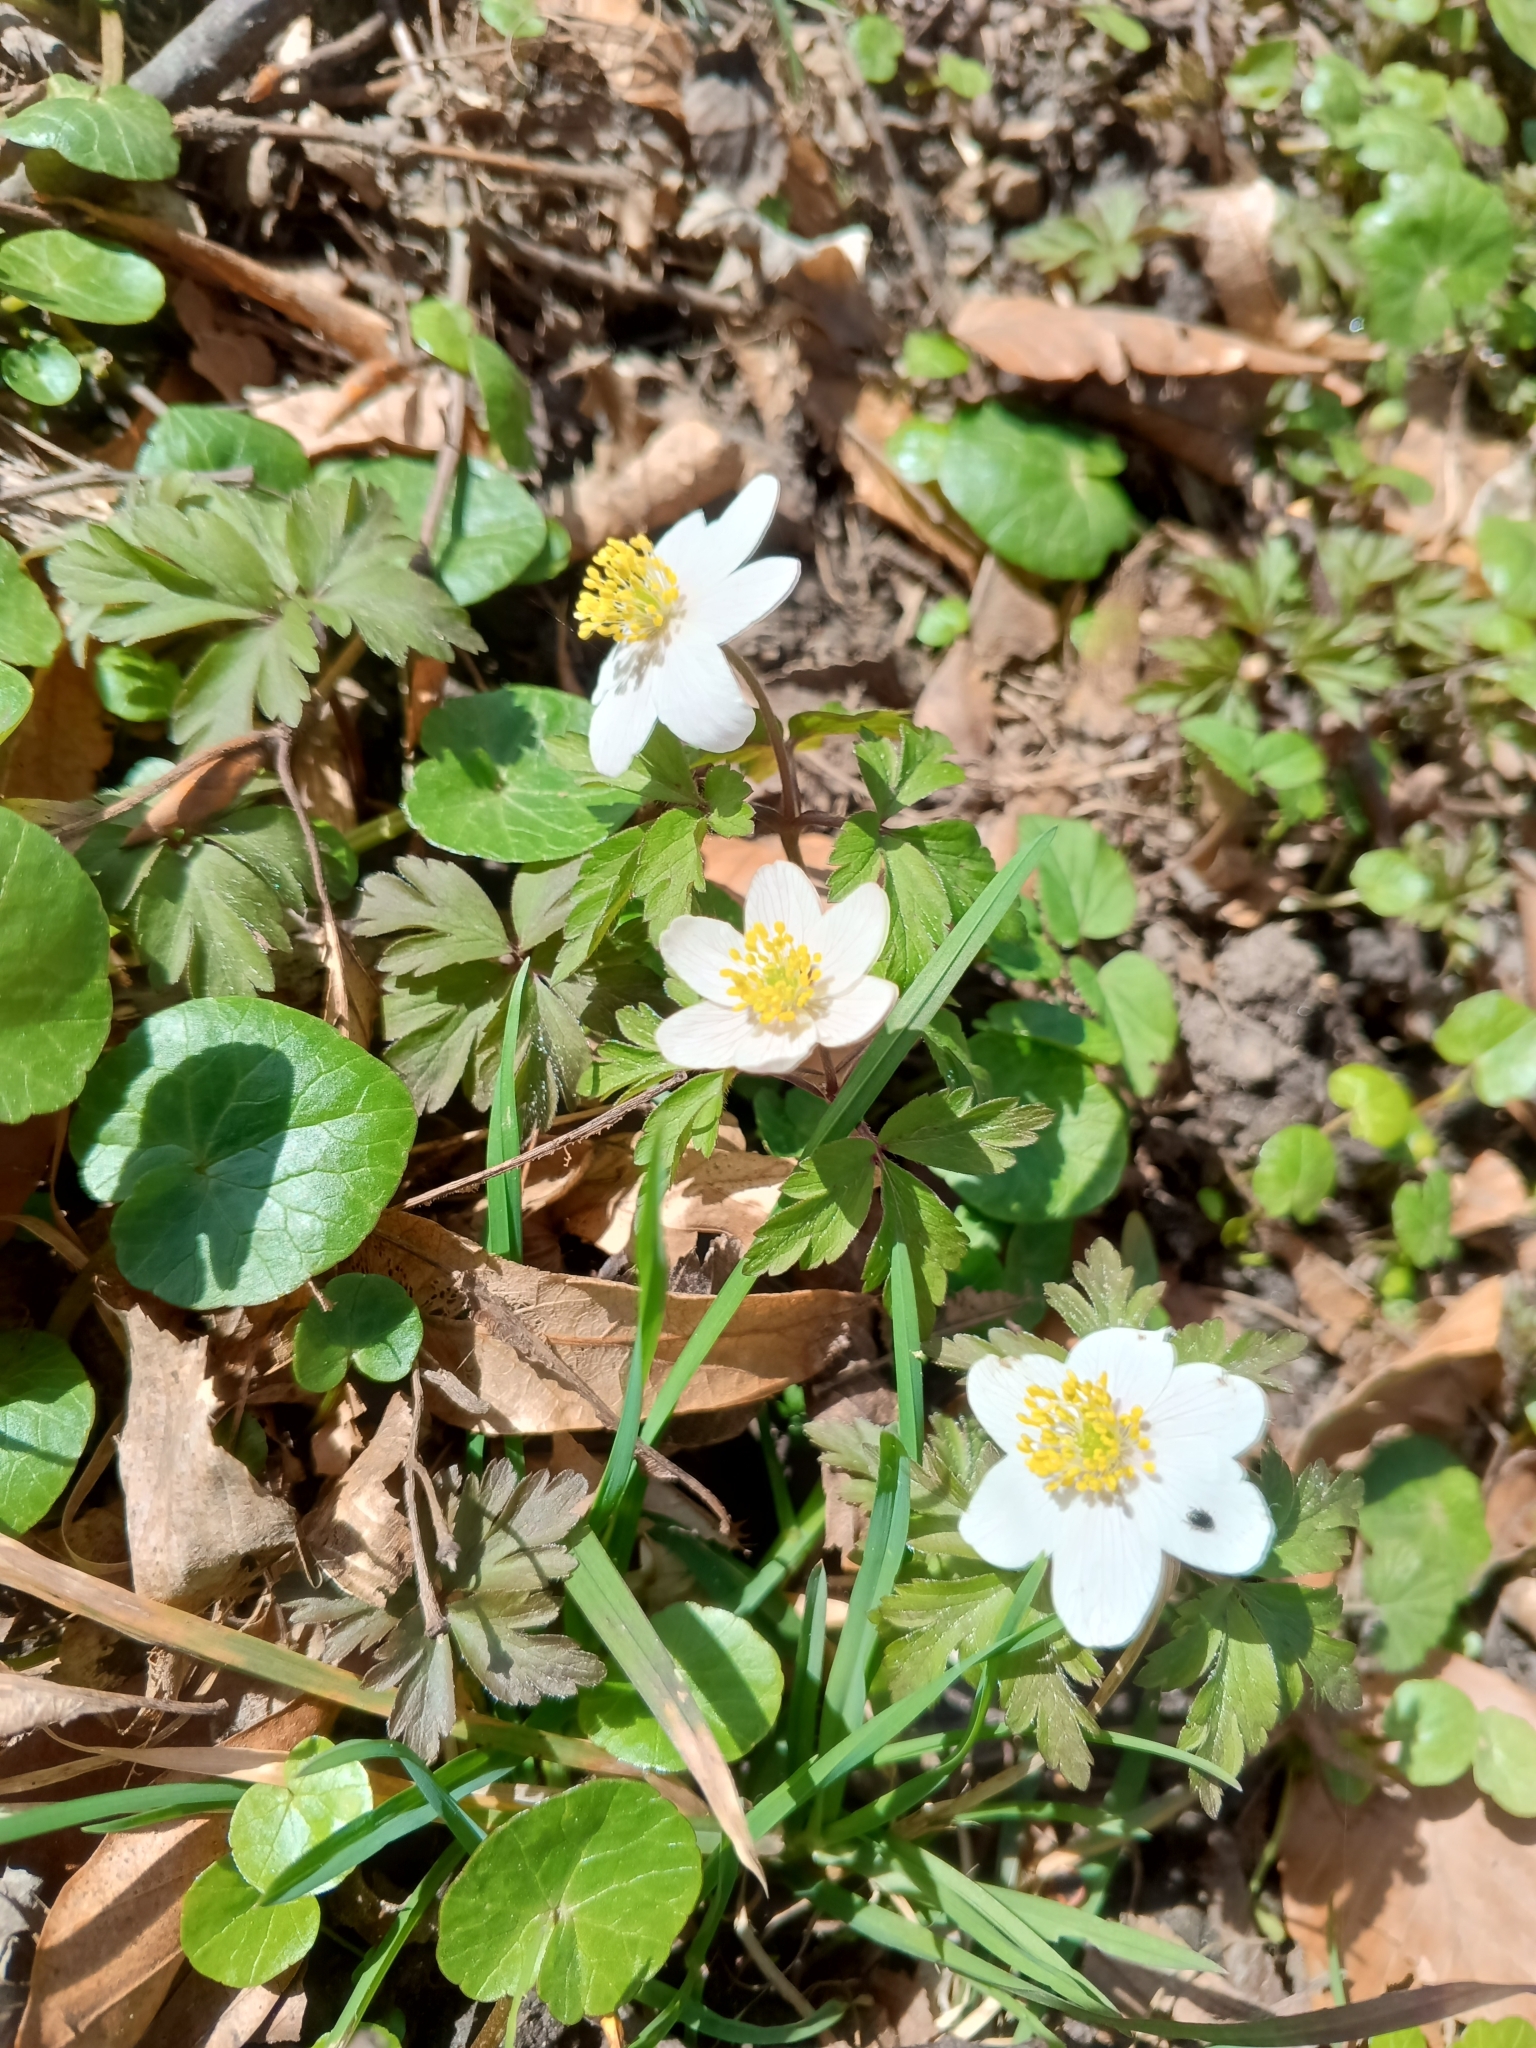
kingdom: Plantae
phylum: Tracheophyta
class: Magnoliopsida
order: Ranunculales
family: Ranunculaceae
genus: Anemone
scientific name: Anemone nemorosa
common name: Wood anemone
